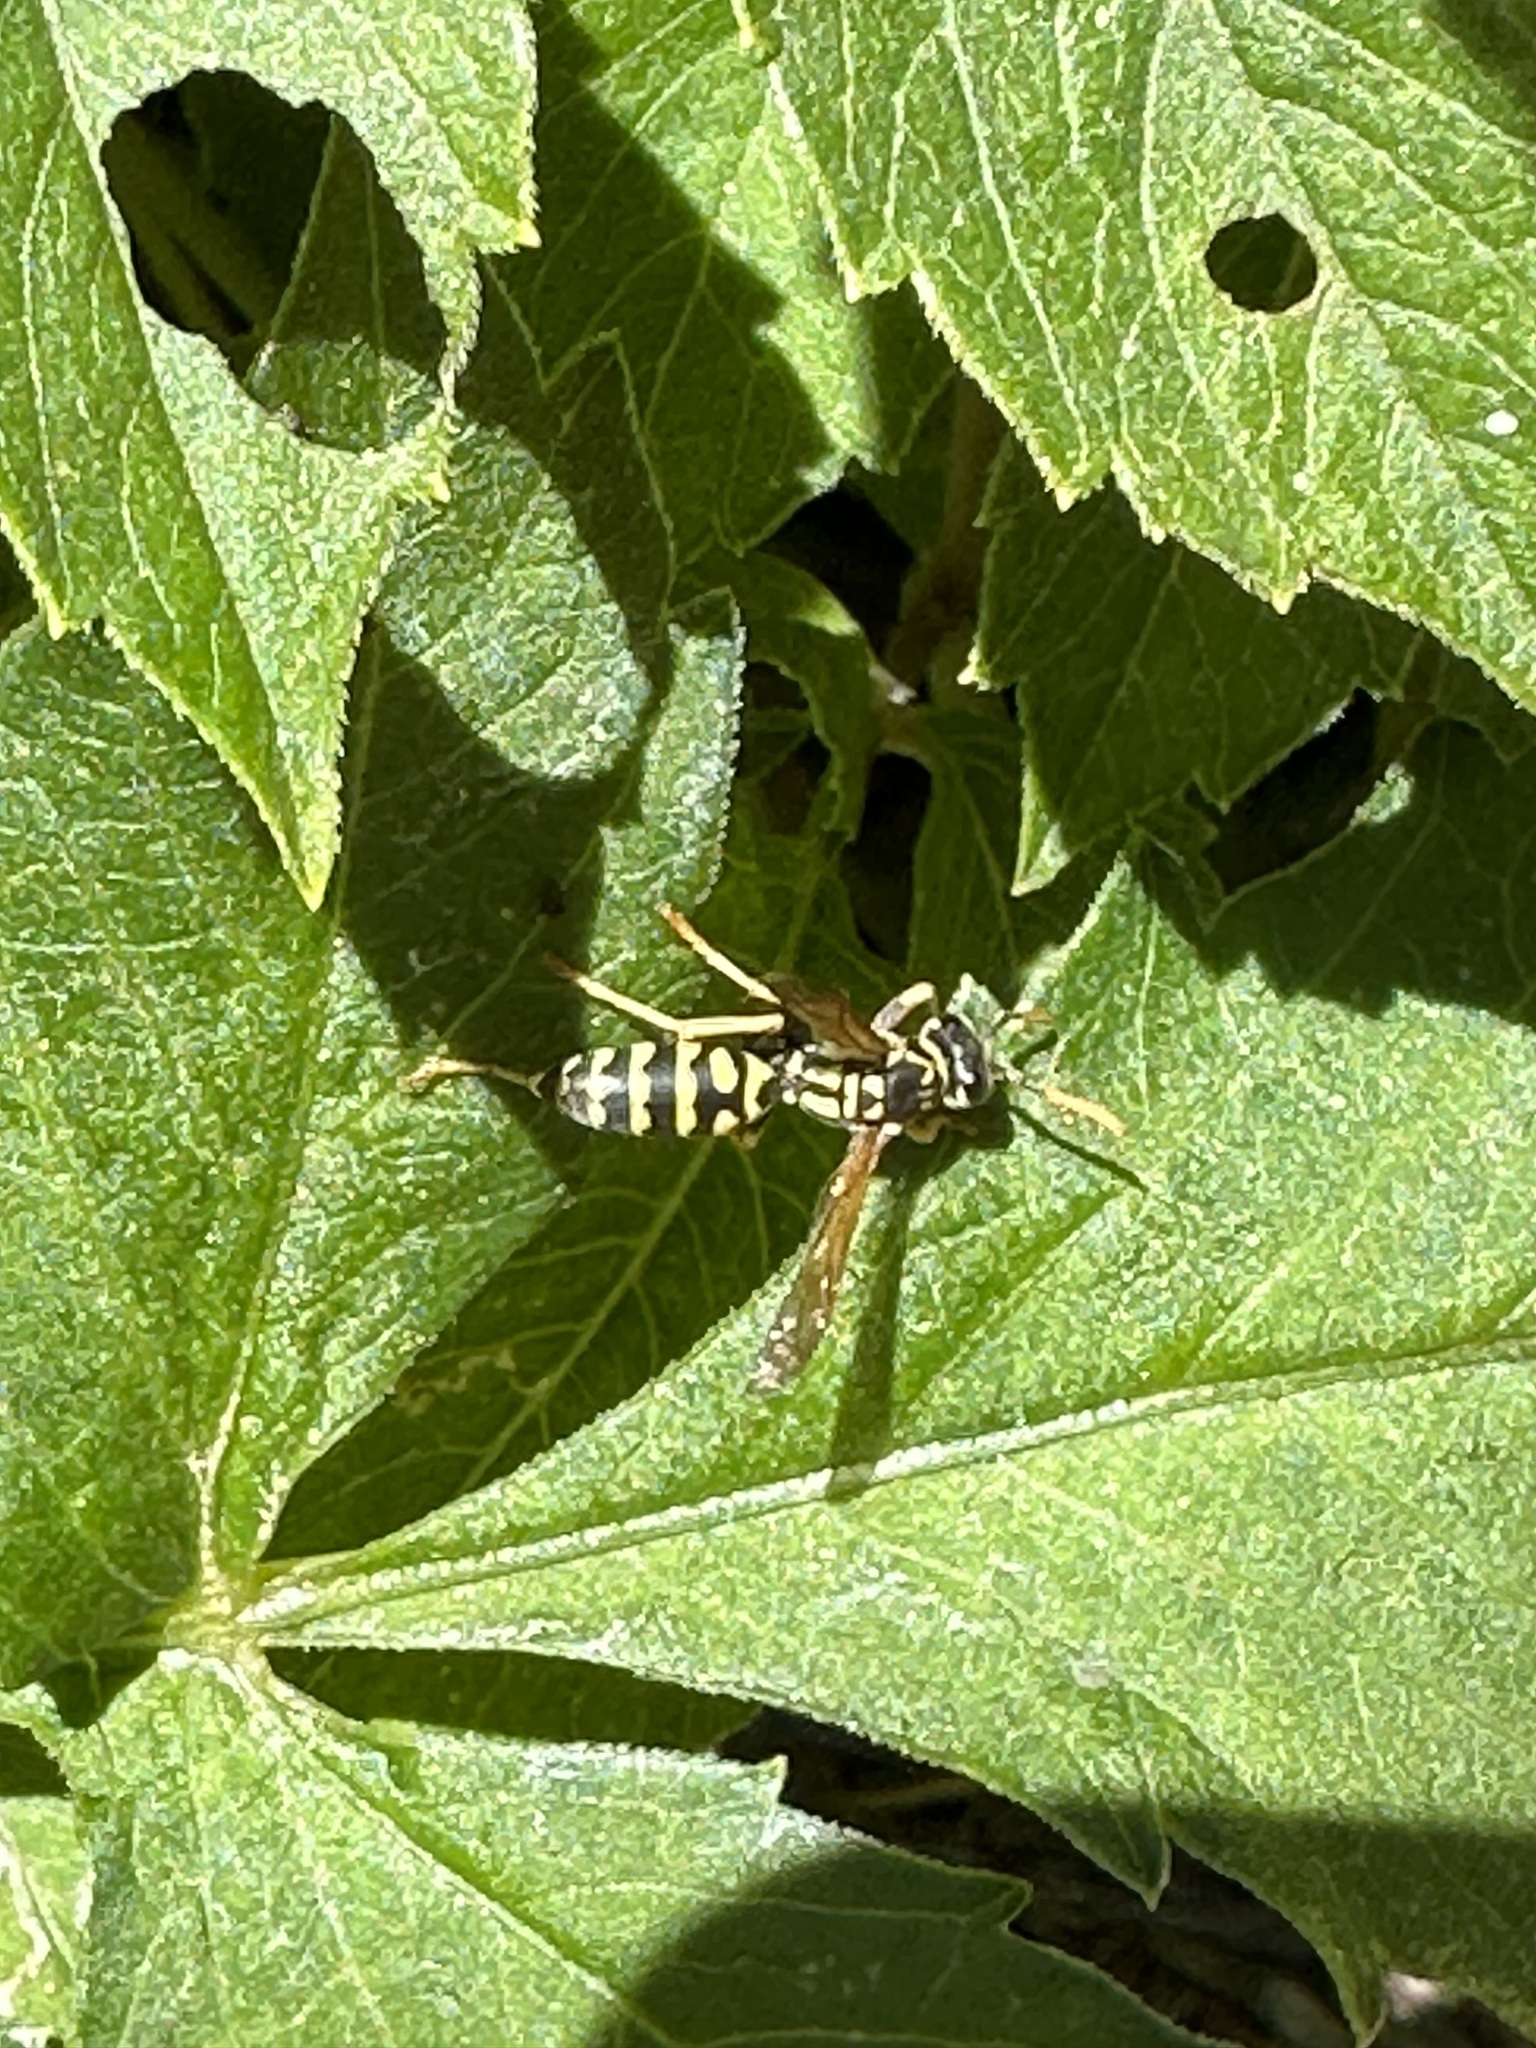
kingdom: Animalia
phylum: Arthropoda
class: Insecta
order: Hymenoptera
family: Eumenidae
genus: Polistes
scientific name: Polistes dominula
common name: Paper wasp
